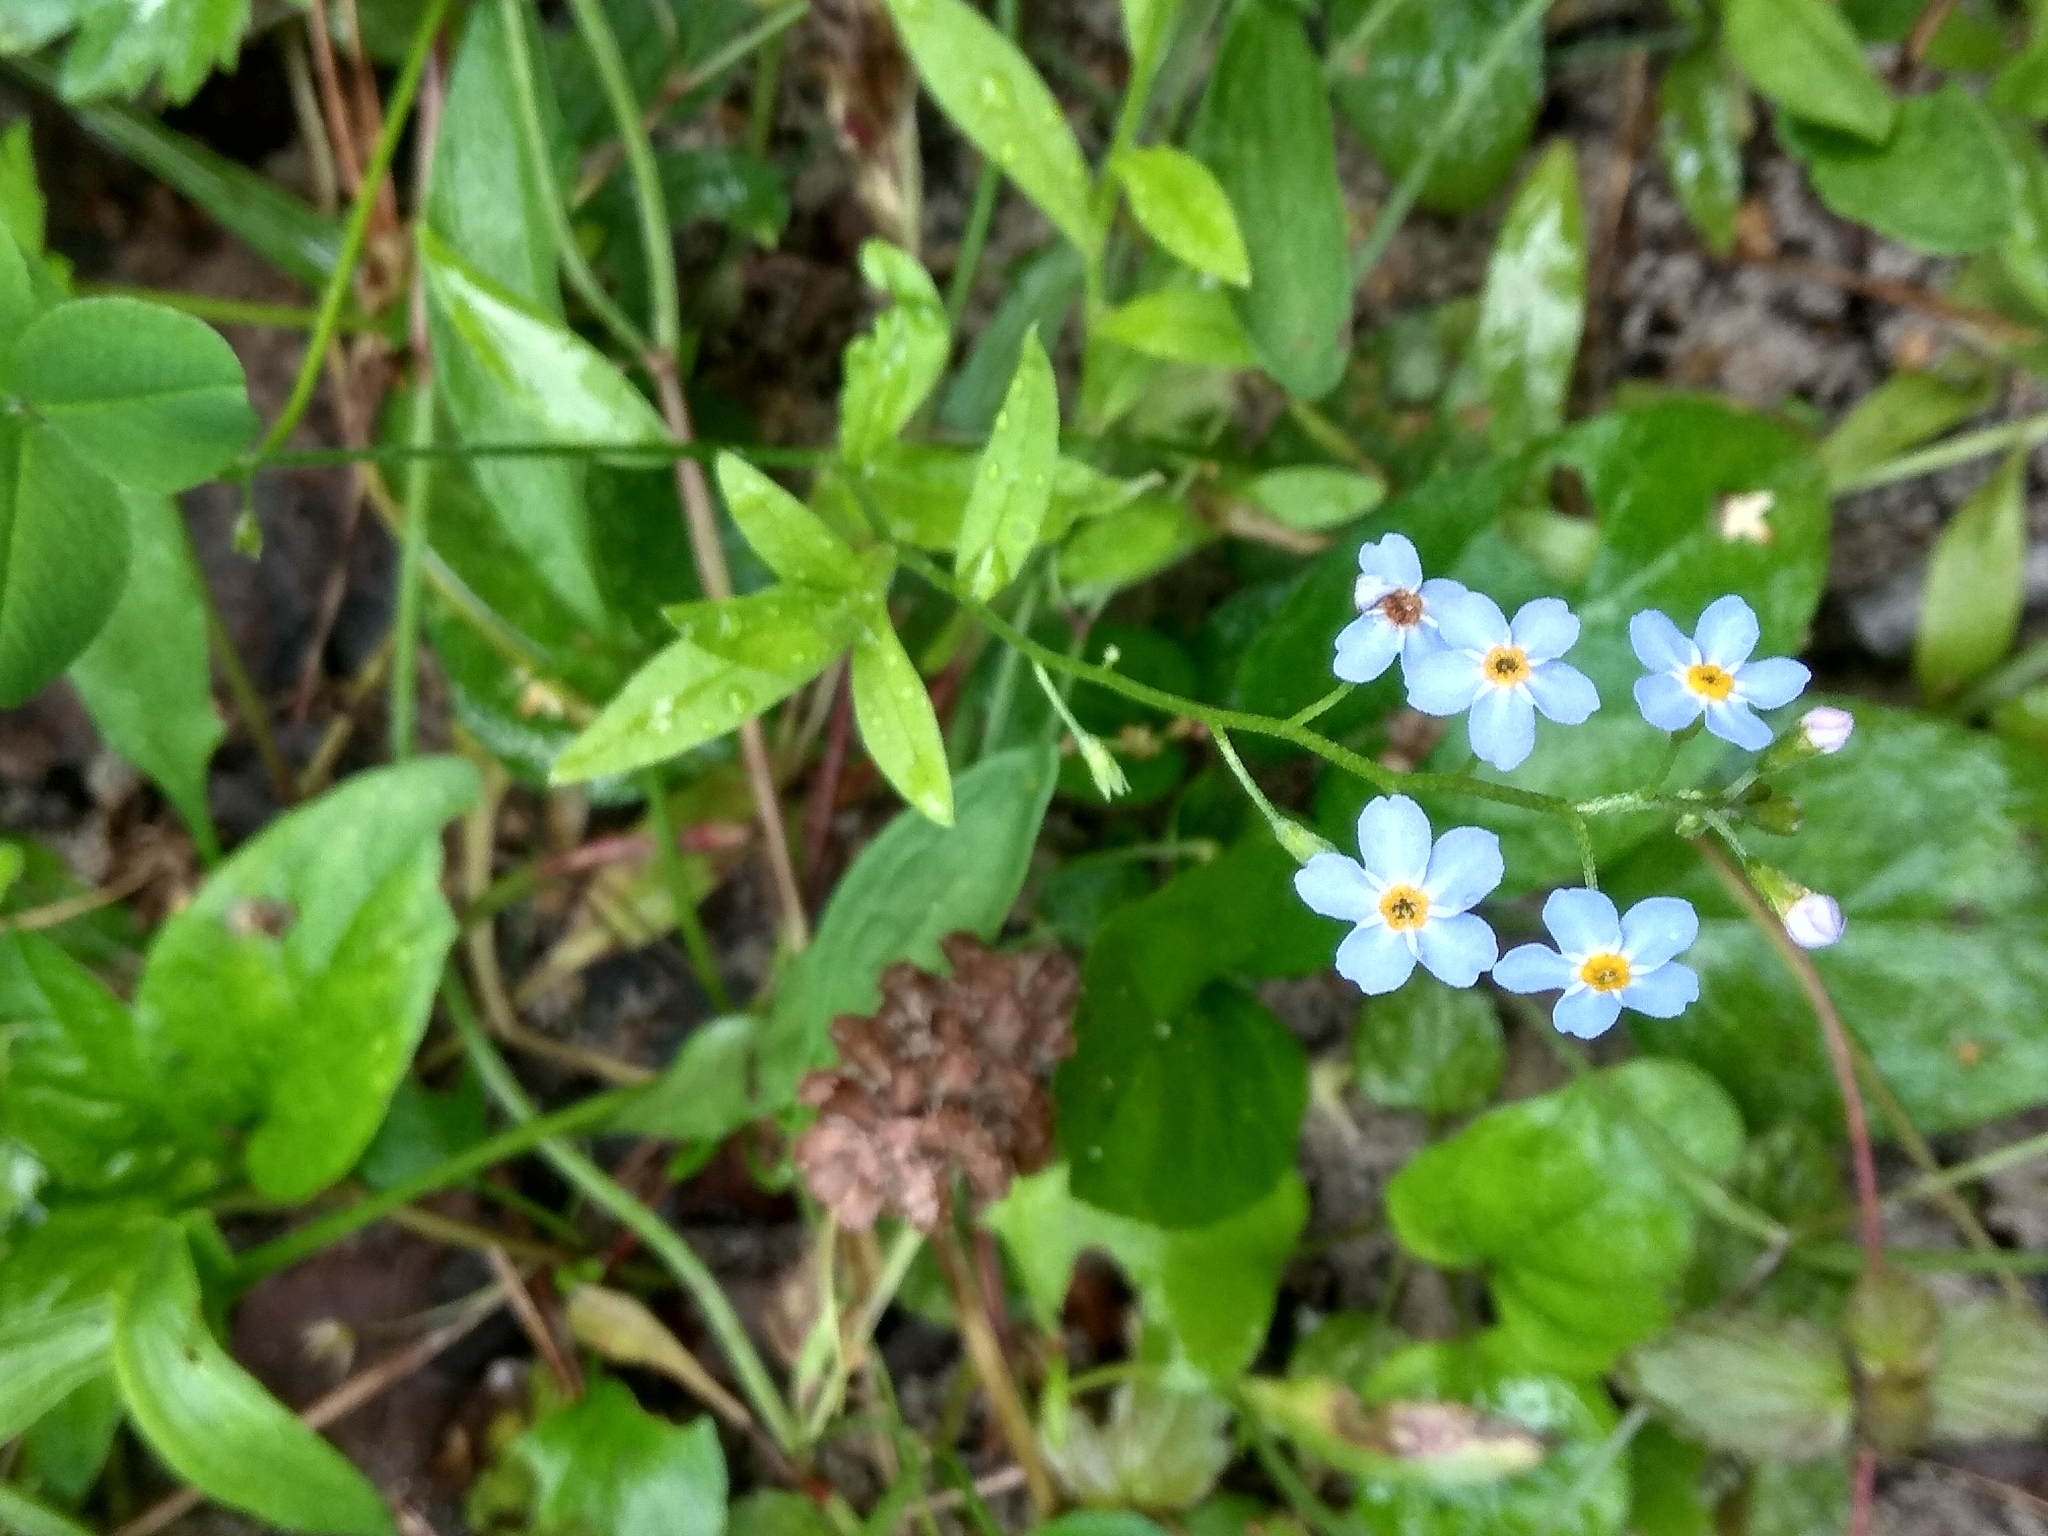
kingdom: Plantae
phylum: Tracheophyta
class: Magnoliopsida
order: Boraginales
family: Boraginaceae
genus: Myosotis
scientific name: Myosotis scorpioides
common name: Water forget-me-not
